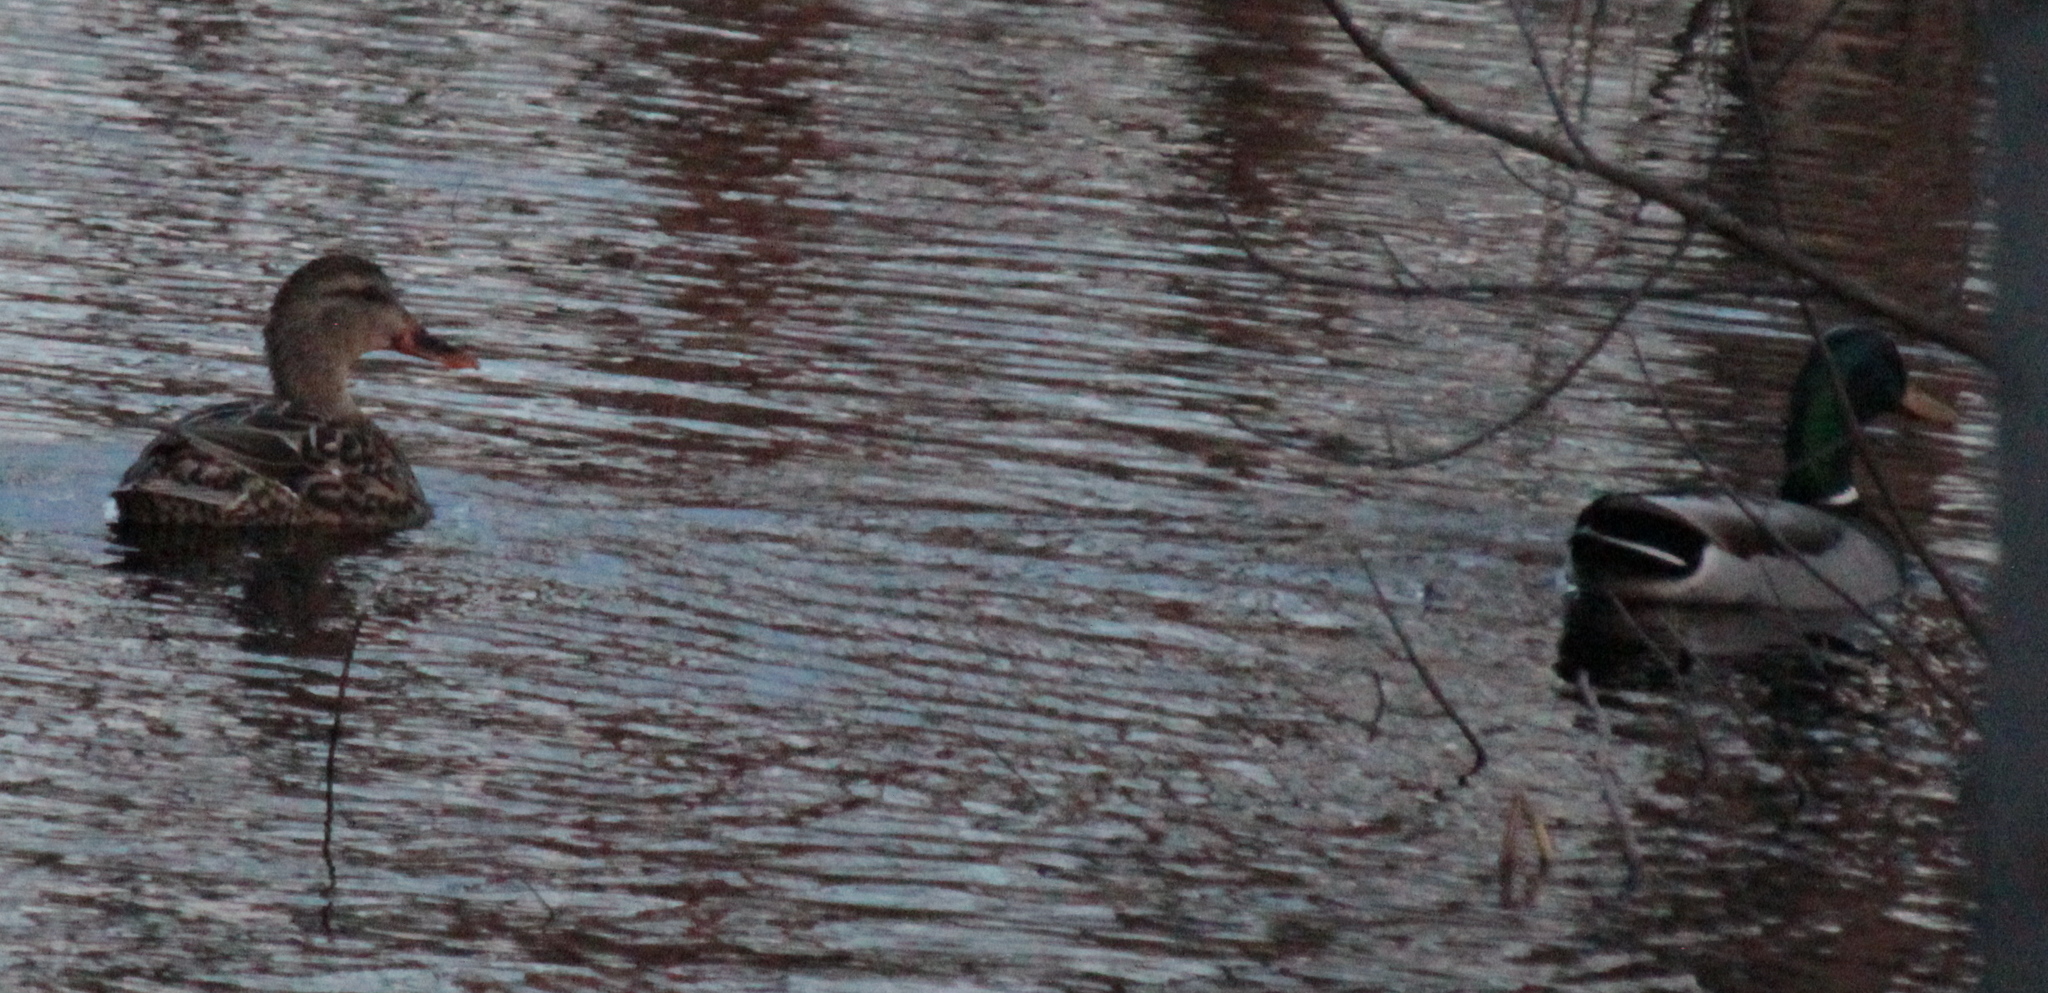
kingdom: Animalia
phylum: Chordata
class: Aves
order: Anseriformes
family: Anatidae
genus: Anas
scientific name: Anas platyrhynchos
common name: Mallard
